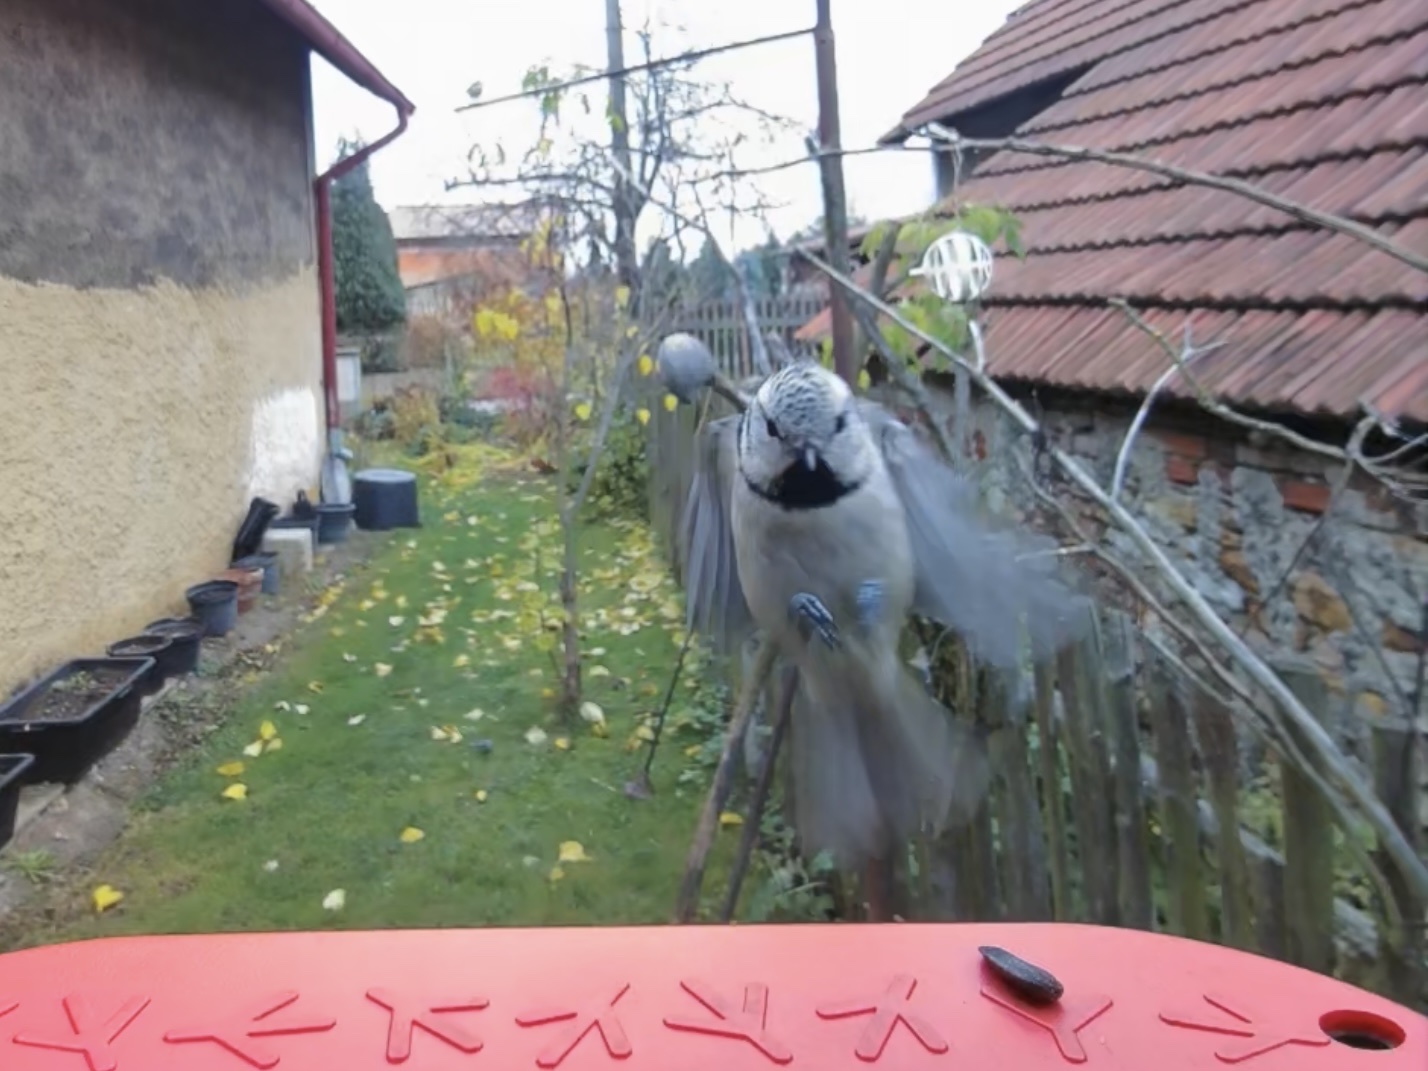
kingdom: Animalia
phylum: Chordata
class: Aves
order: Passeriformes
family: Paridae
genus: Lophophanes
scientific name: Lophophanes cristatus
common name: European crested tit
